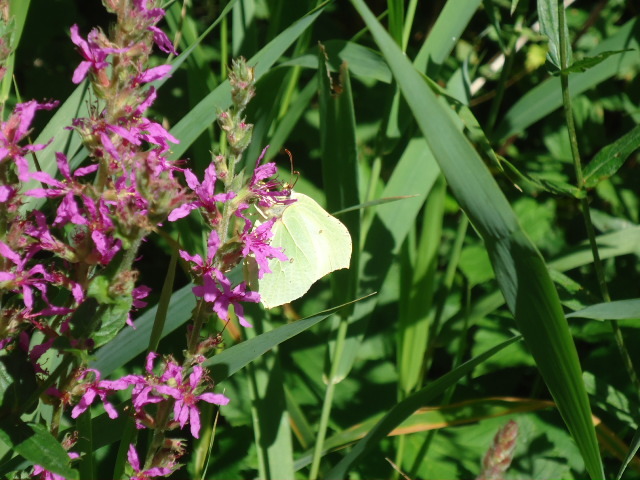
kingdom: Animalia
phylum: Arthropoda
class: Insecta
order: Lepidoptera
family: Pieridae
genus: Gonepteryx
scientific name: Gonepteryx rhamni
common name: Brimstone
